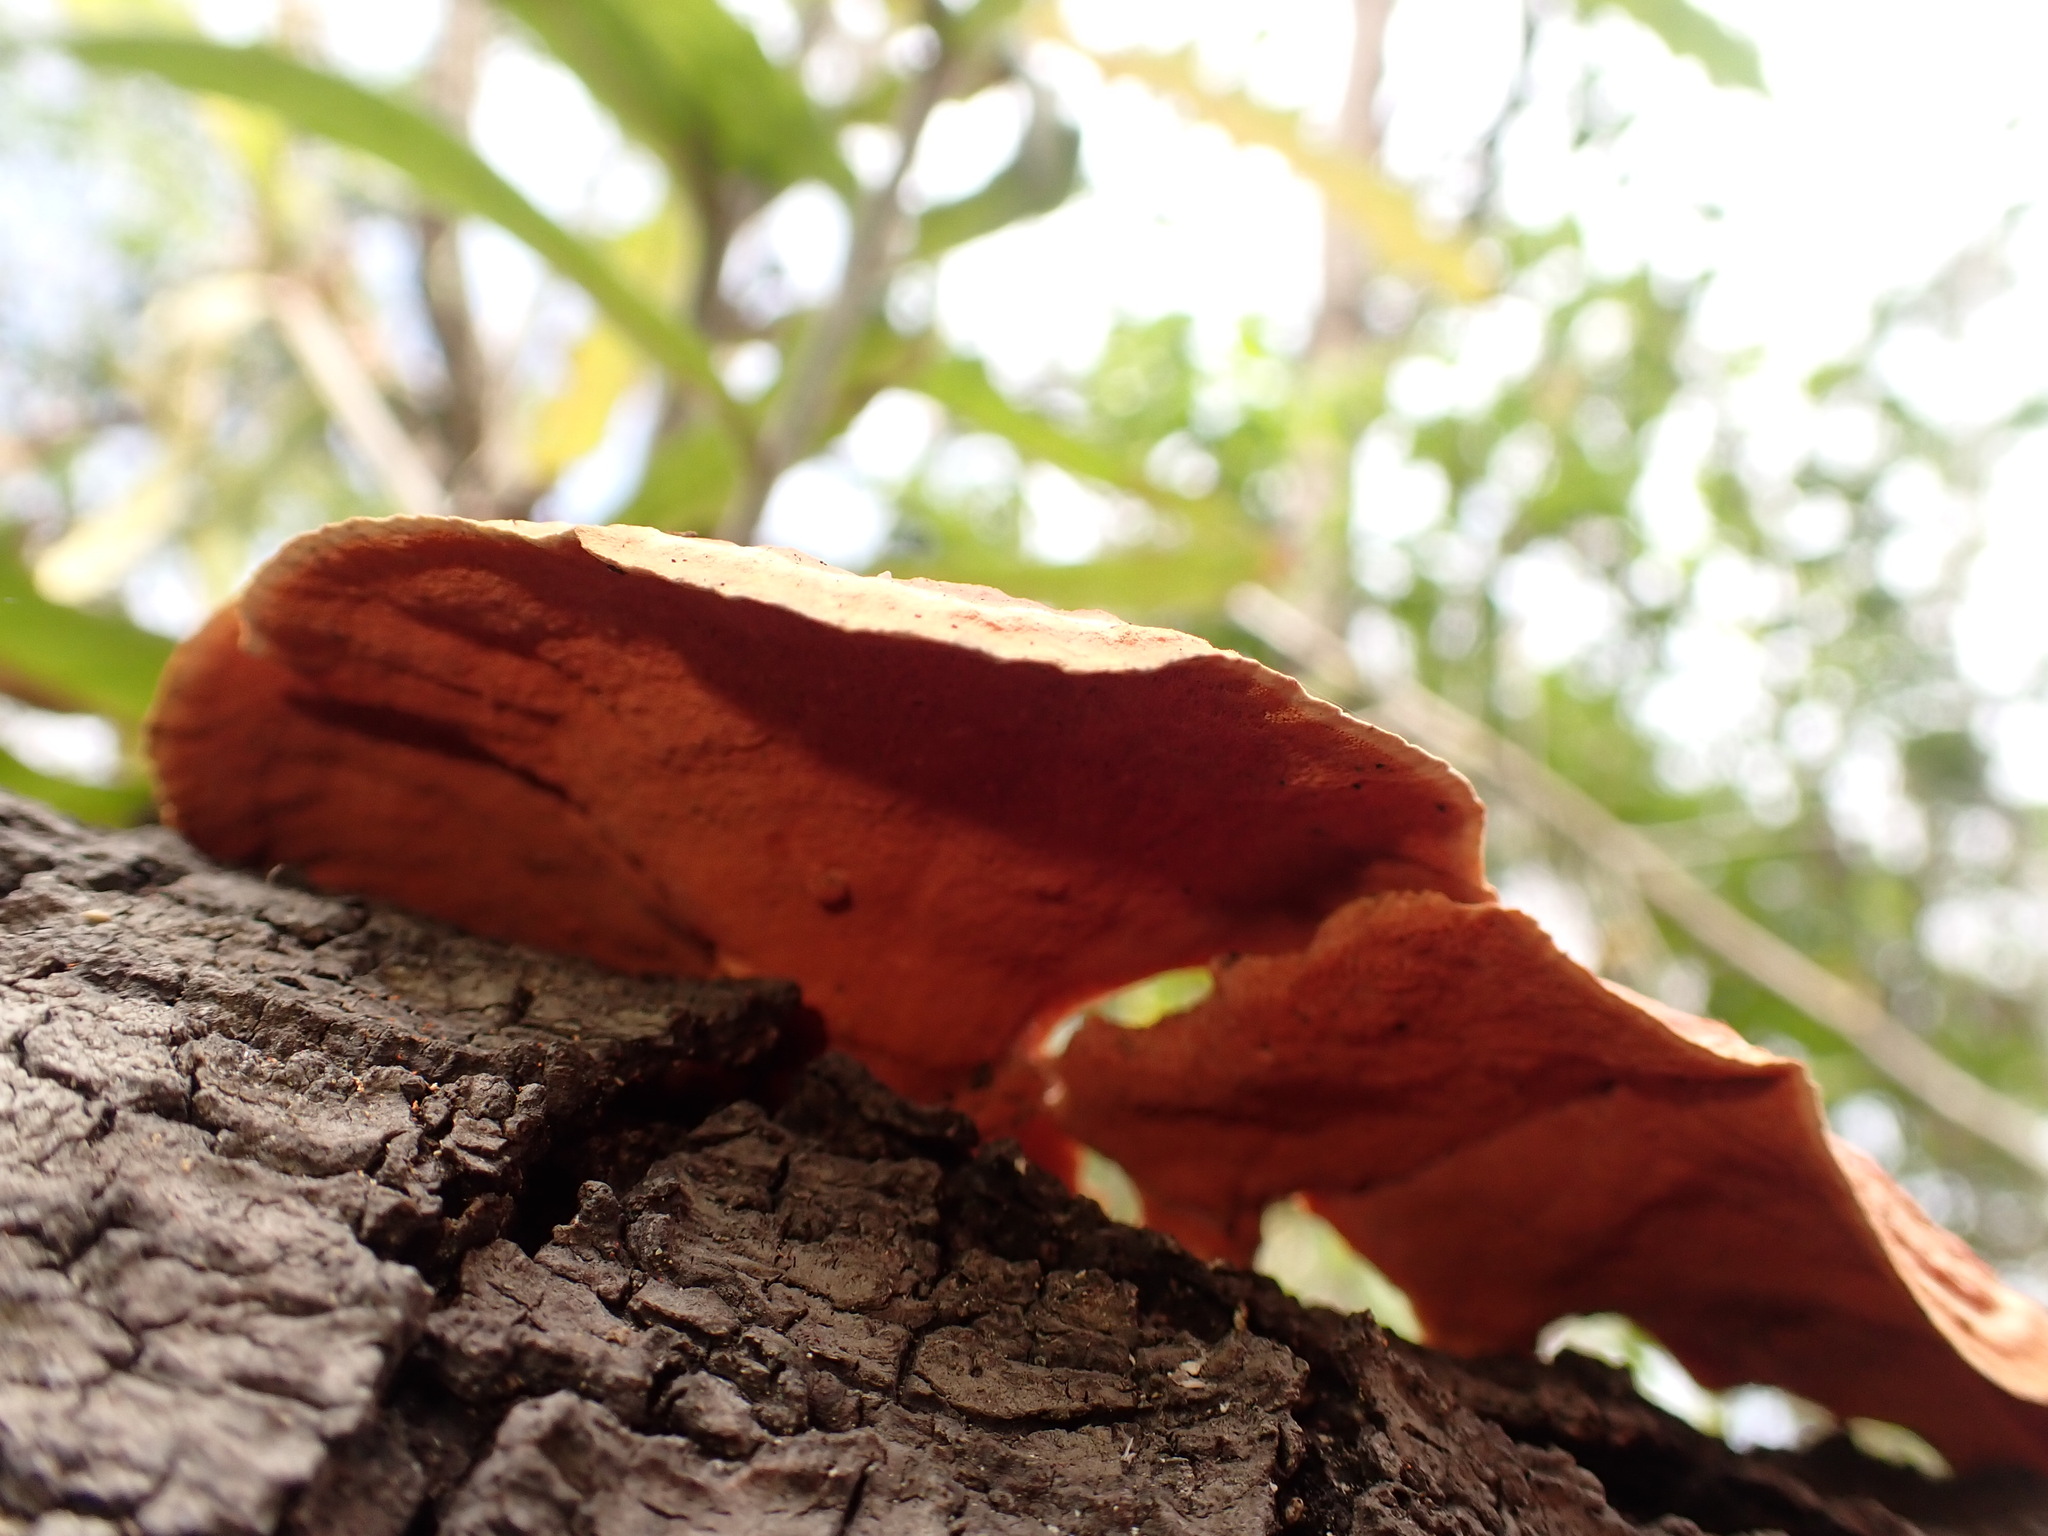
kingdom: Fungi
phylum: Basidiomycota
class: Agaricomycetes
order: Polyporales
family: Polyporaceae
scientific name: Polyporaceae
